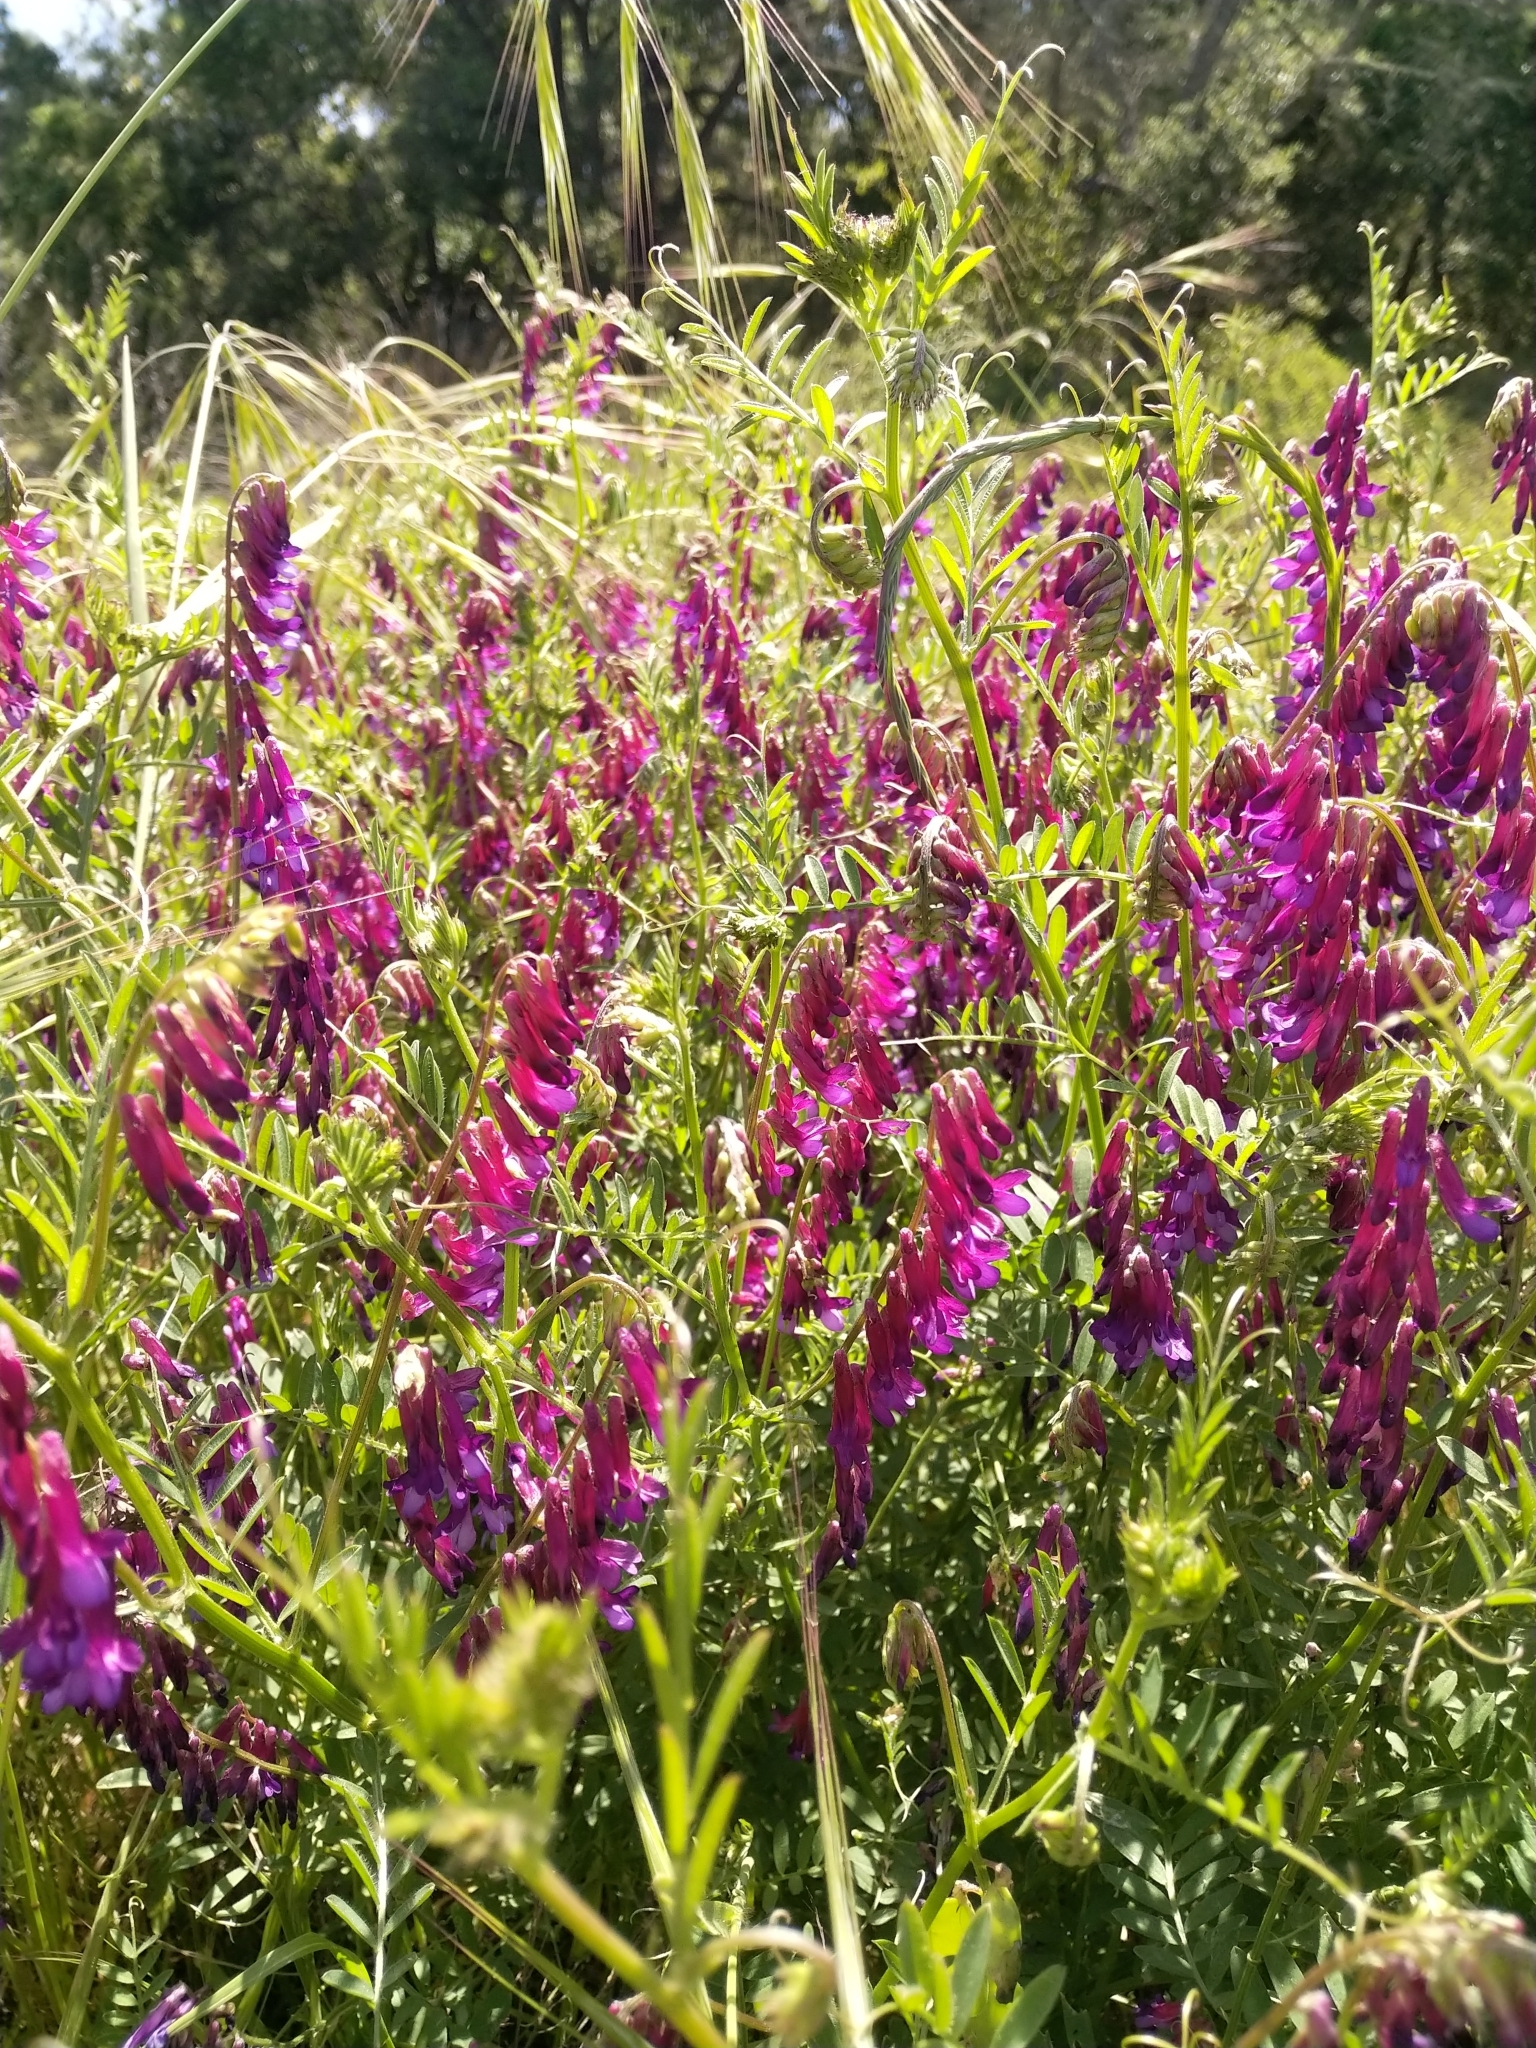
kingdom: Plantae
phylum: Tracheophyta
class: Magnoliopsida
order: Fabales
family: Fabaceae
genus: Vicia
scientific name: Vicia villosa
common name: Fodder vetch
